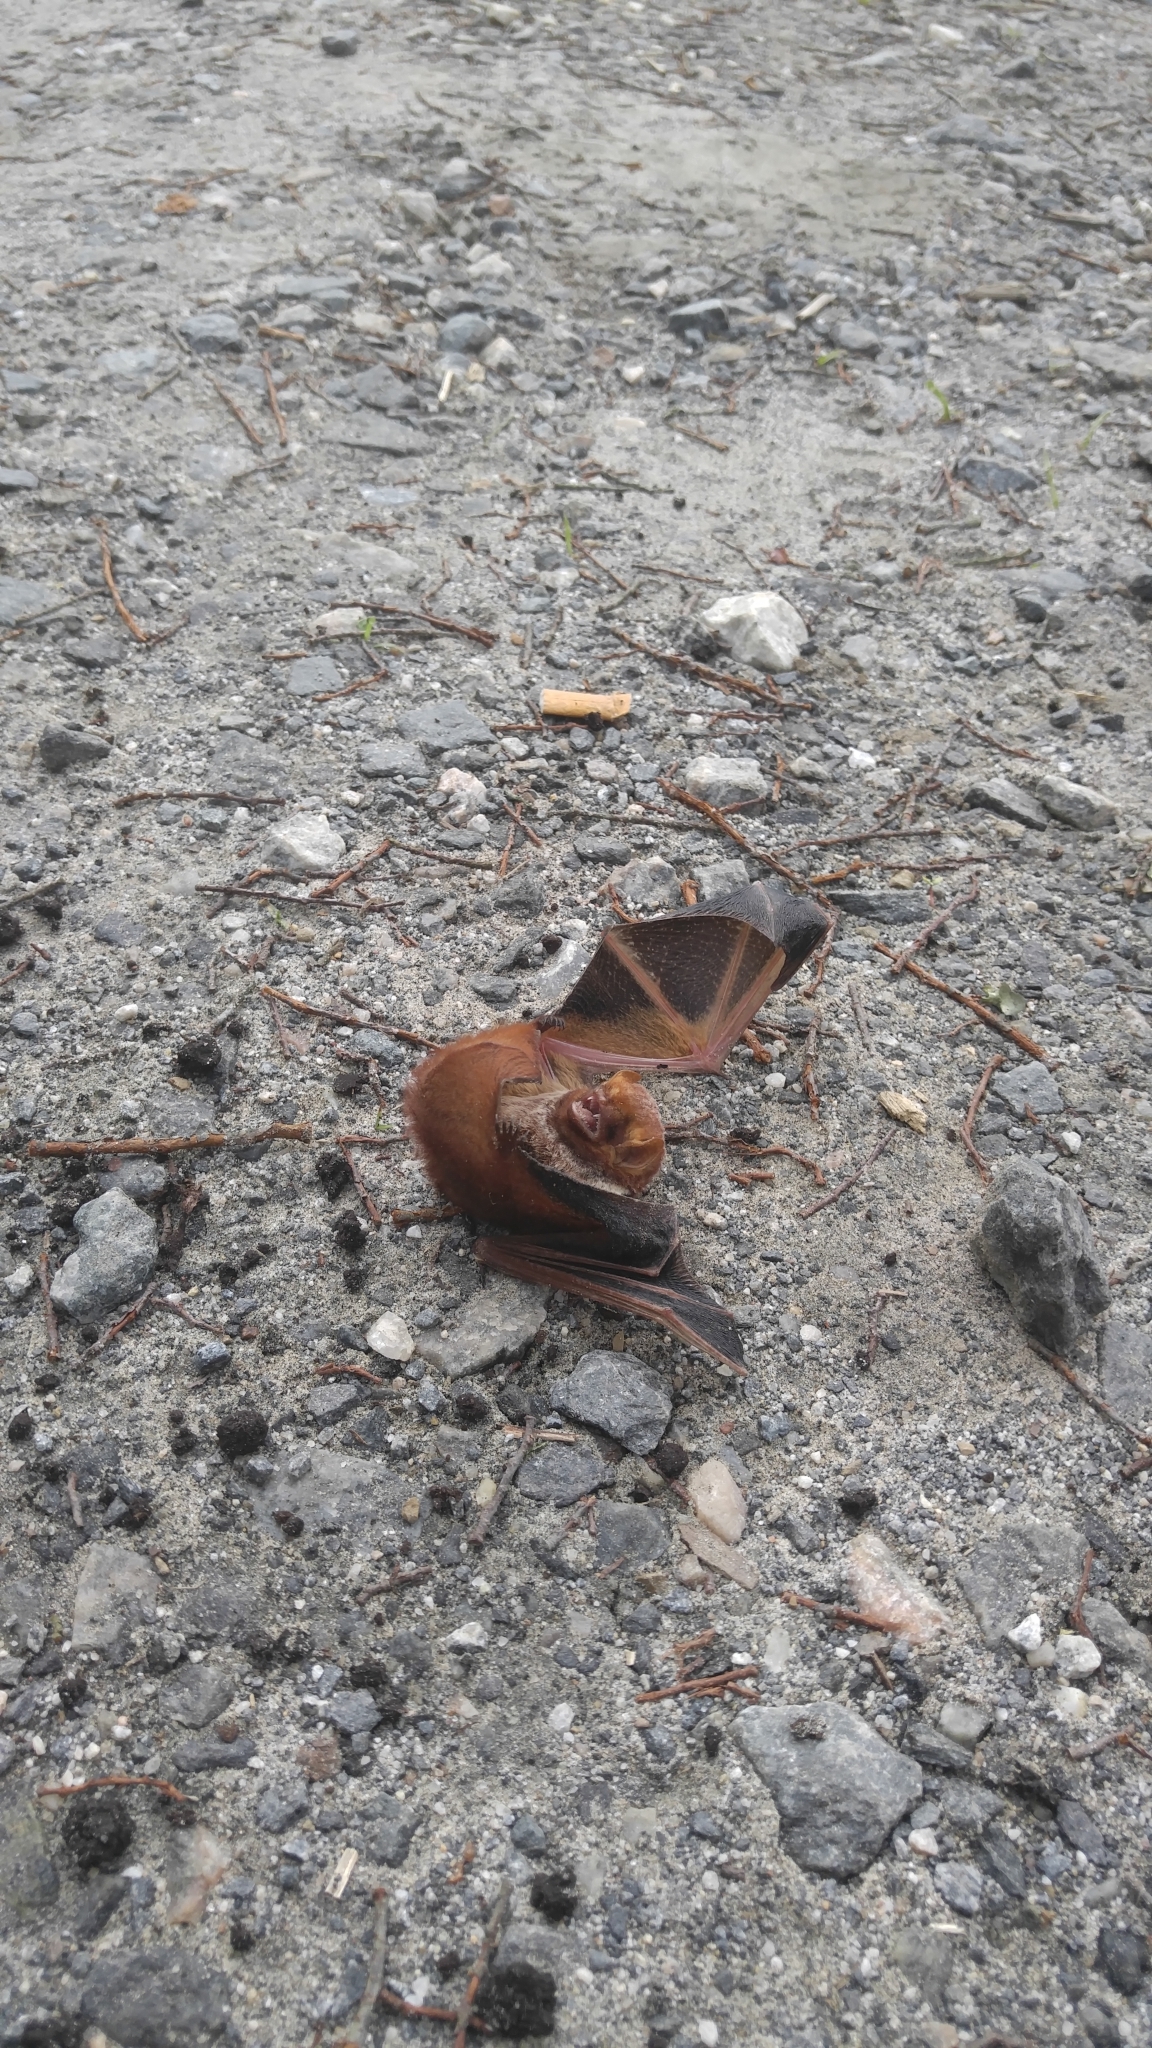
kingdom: Animalia
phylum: Chordata
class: Mammalia
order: Chiroptera
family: Vespertilionidae
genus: Lasiurus
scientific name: Lasiurus borealis
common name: Eastern red bat
